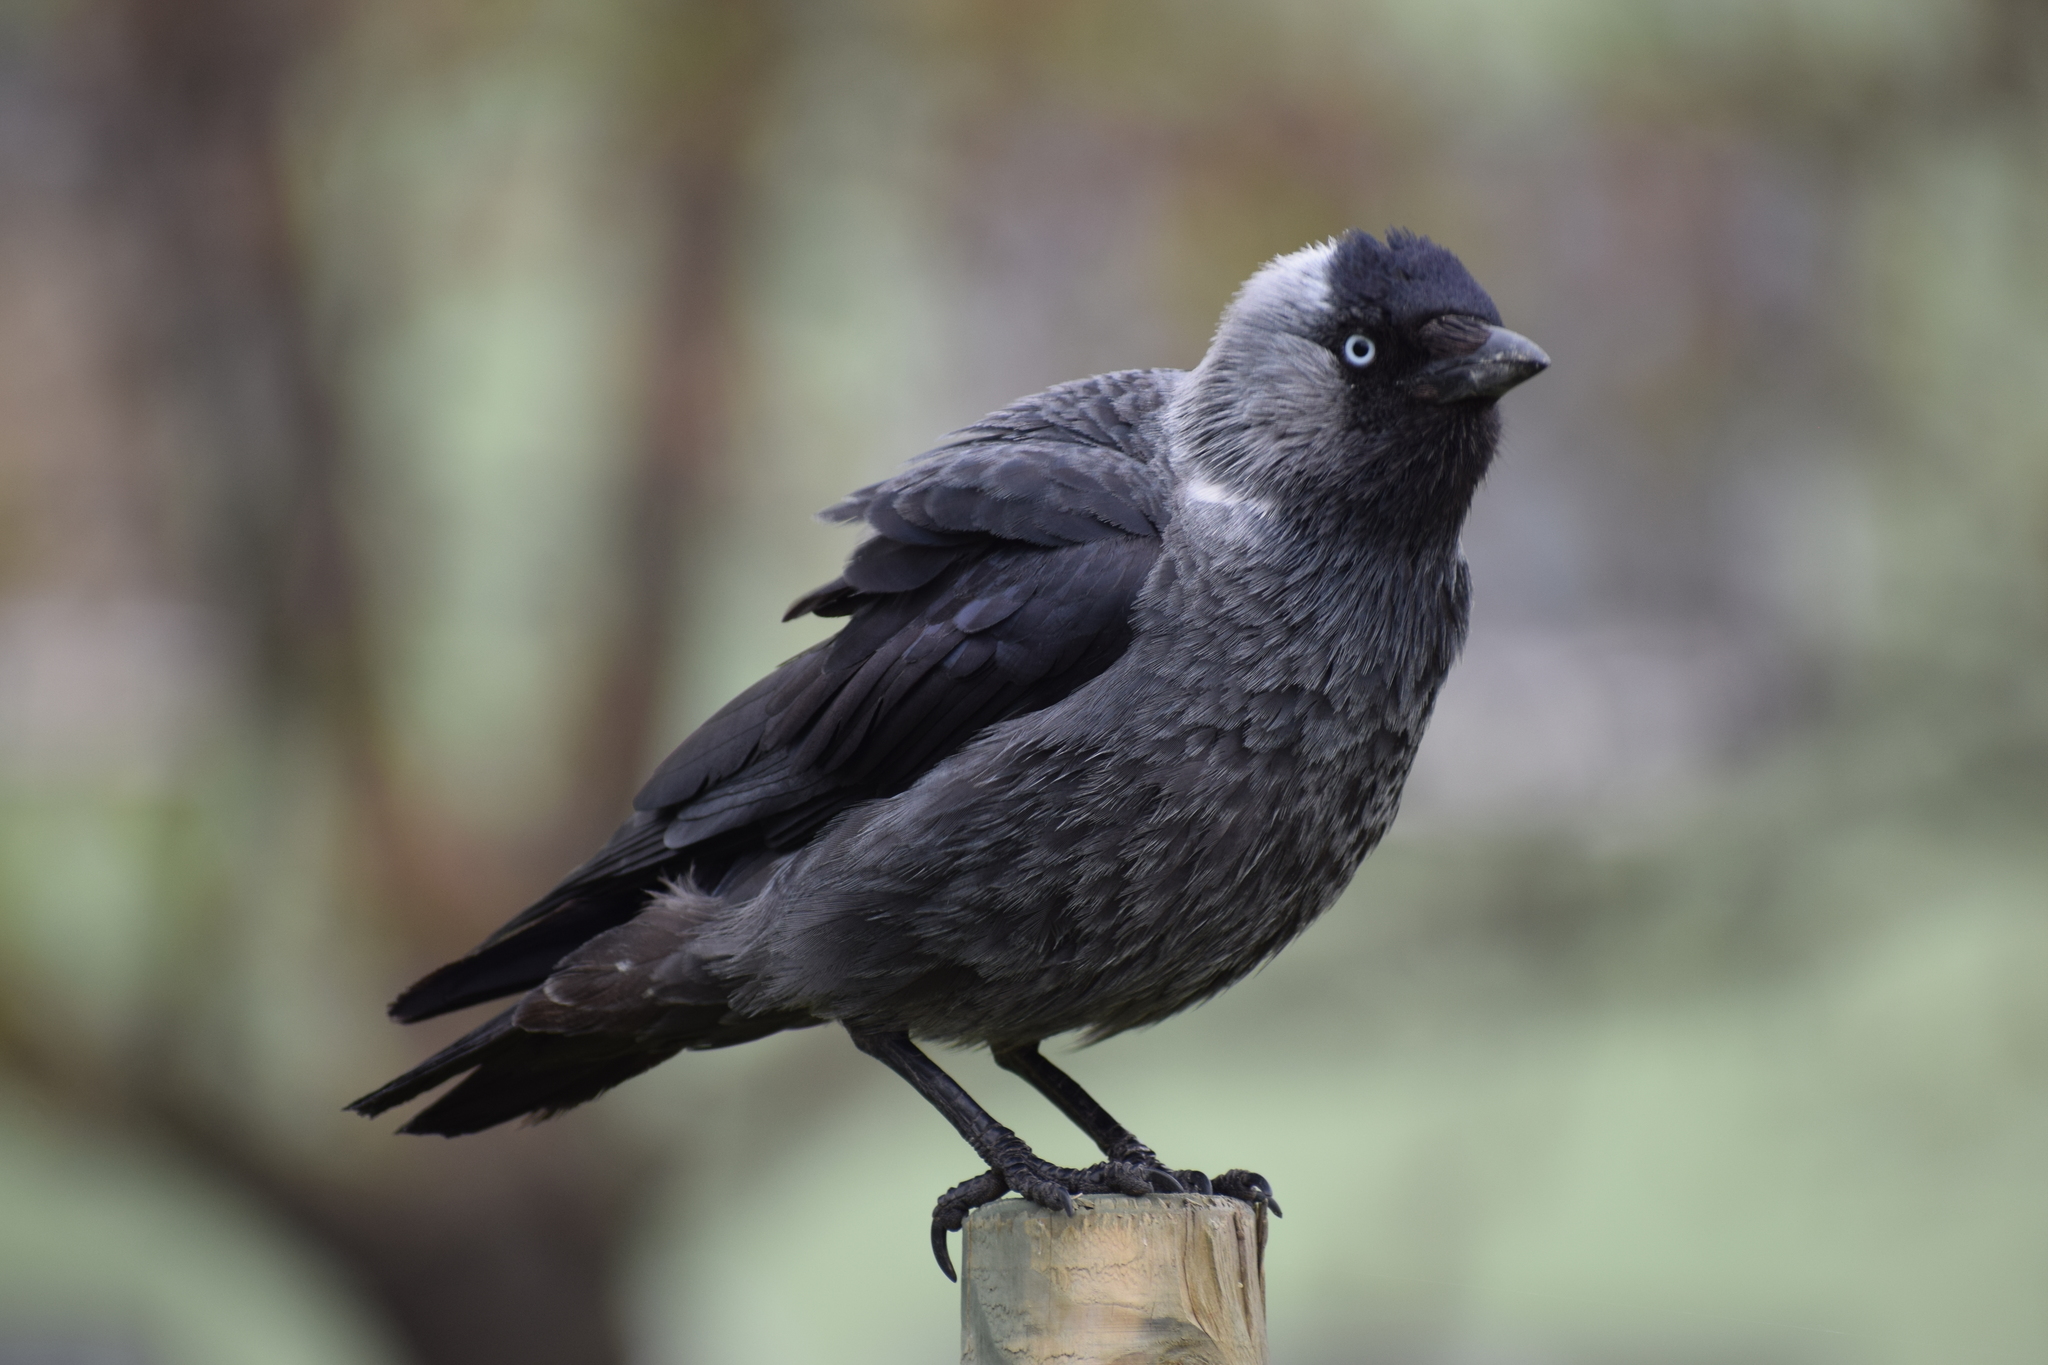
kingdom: Animalia
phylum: Chordata
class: Aves
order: Passeriformes
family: Corvidae
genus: Coloeus
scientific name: Coloeus monedula
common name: Western jackdaw
